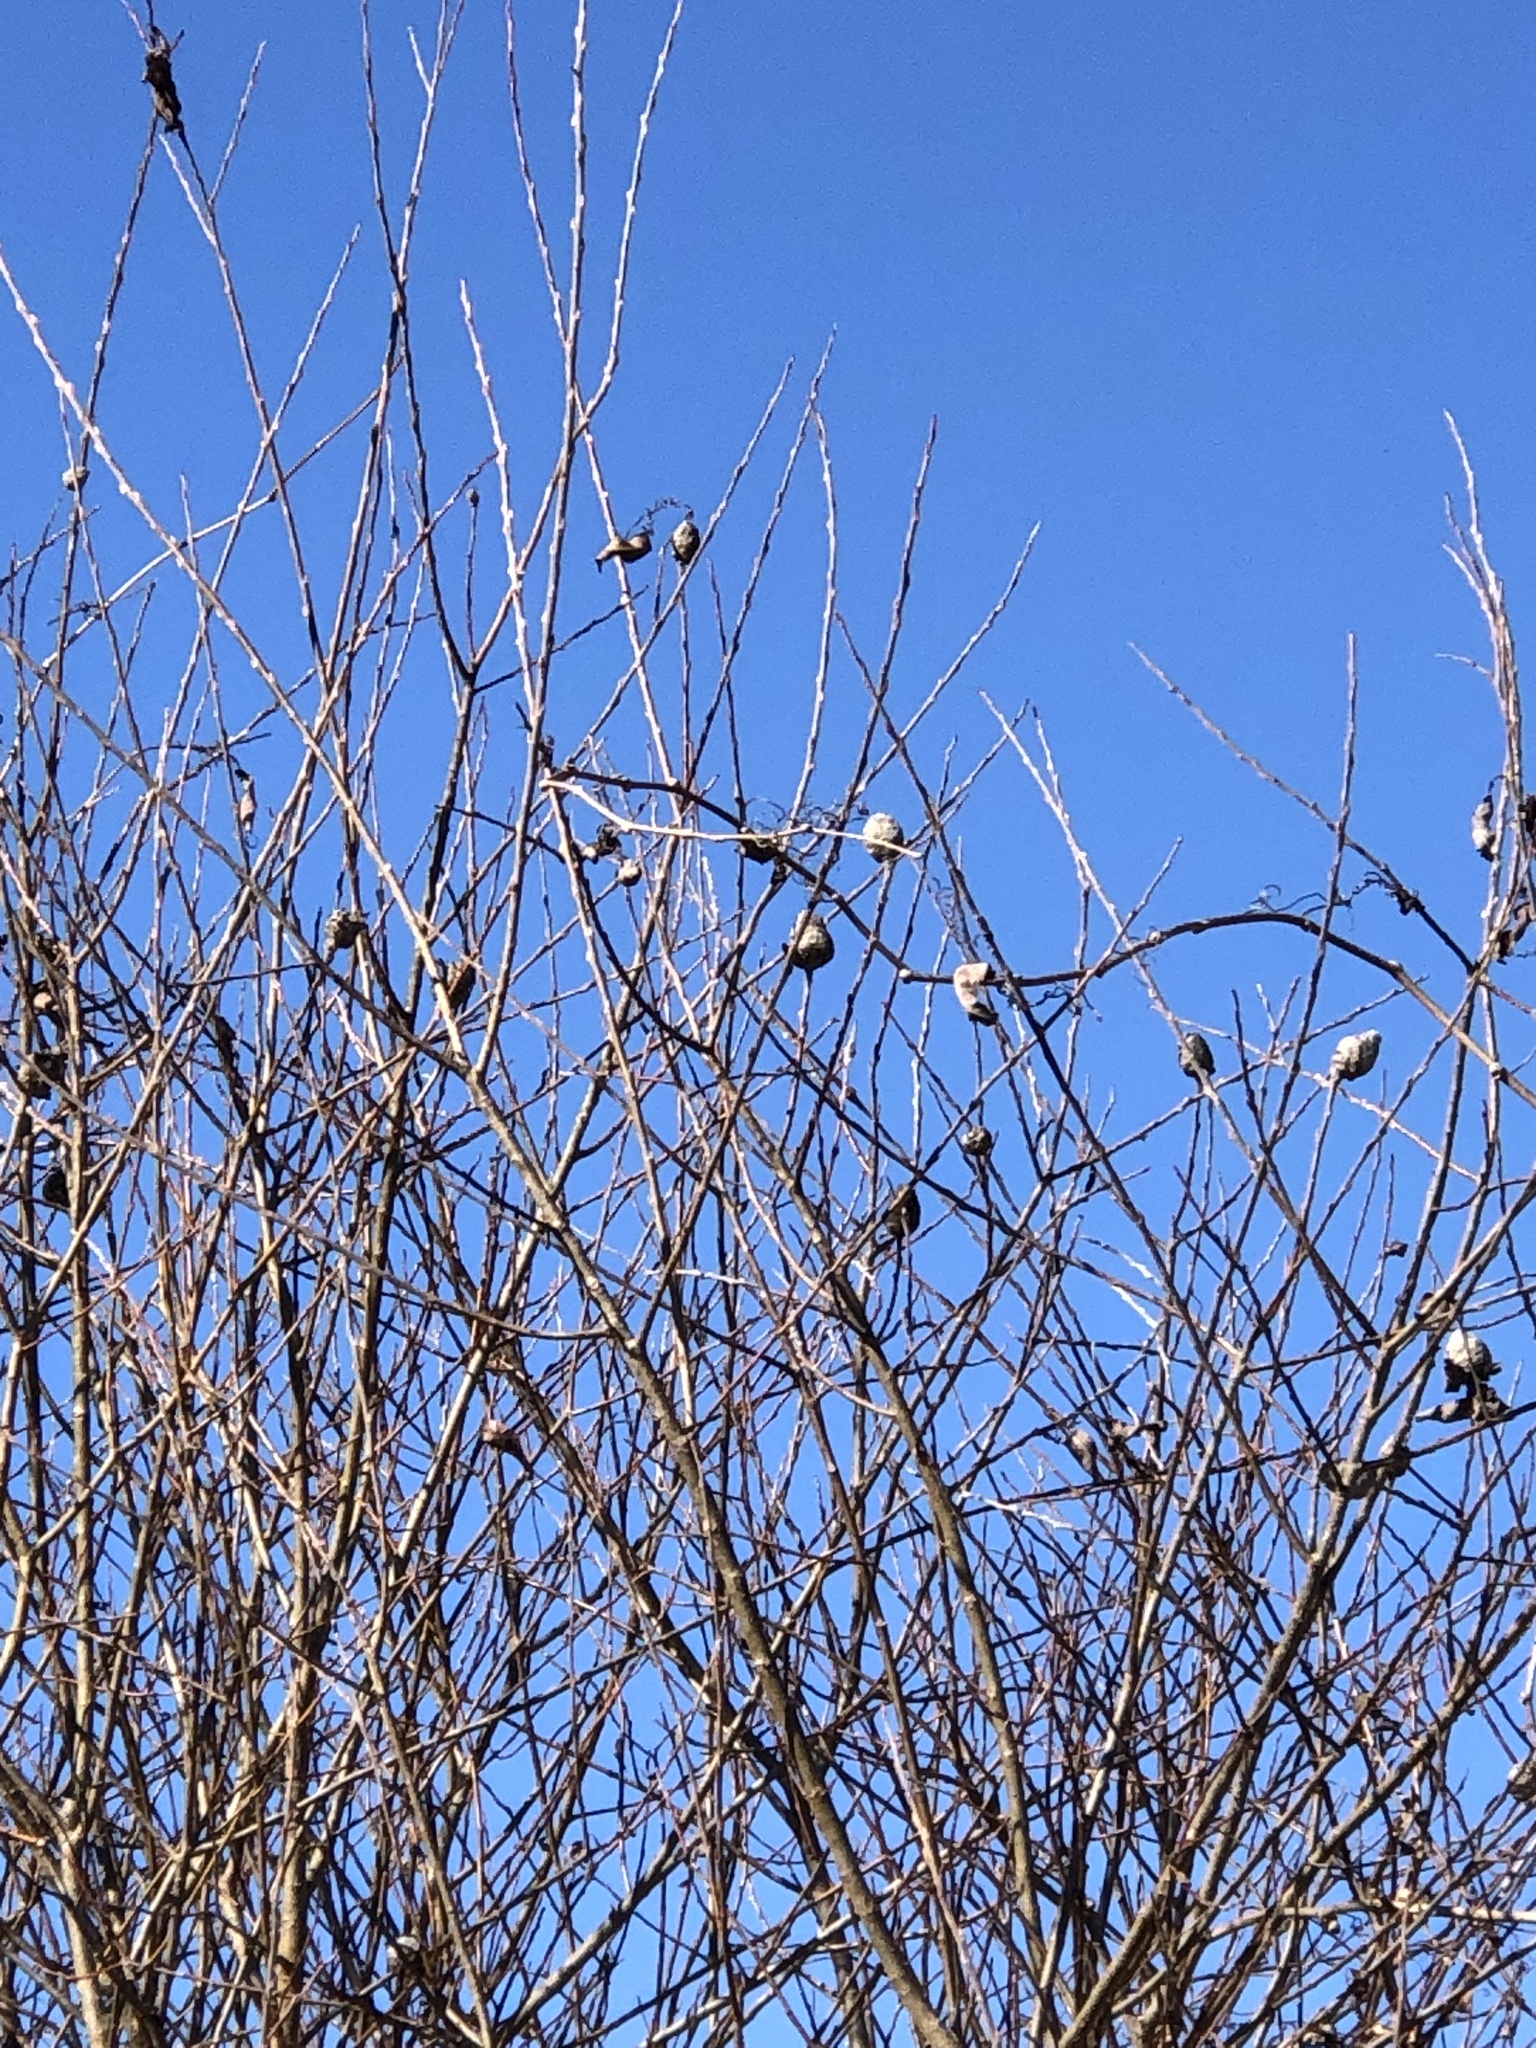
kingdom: Animalia
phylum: Arthropoda
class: Insecta
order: Diptera
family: Cecidomyiidae
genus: Rabdophaga
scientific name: Rabdophaga strobiloides
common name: Willow pinecone gall midge
